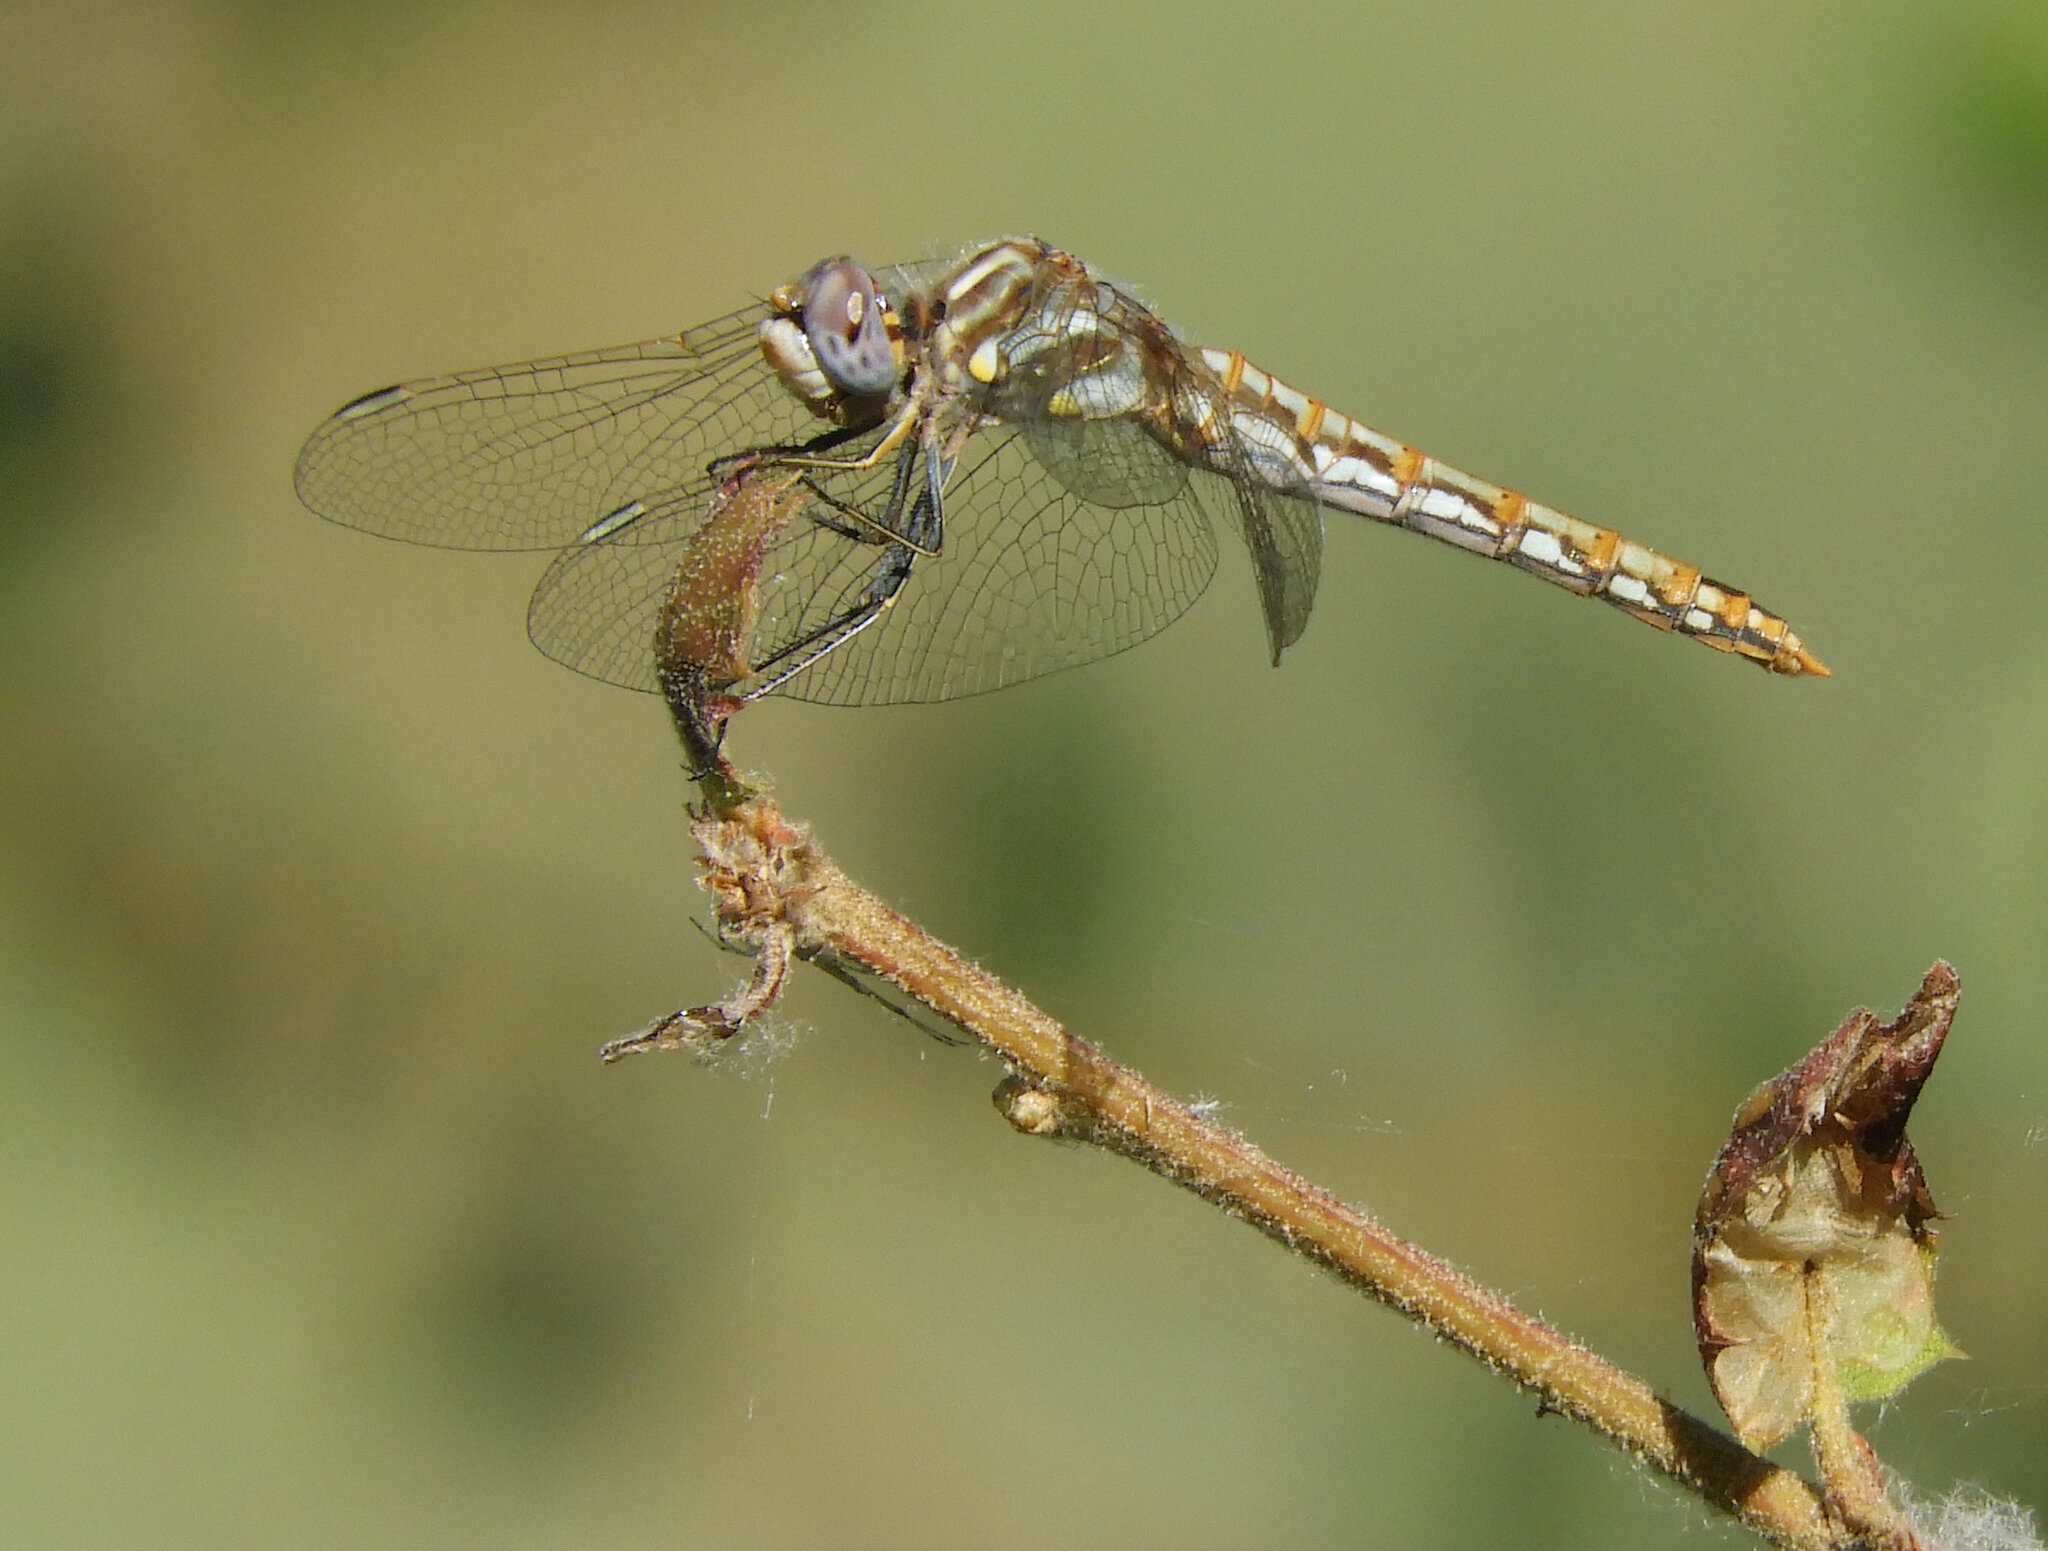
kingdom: Animalia
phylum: Arthropoda
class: Insecta
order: Odonata
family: Libellulidae
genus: Sympetrum
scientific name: Sympetrum corruptum
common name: Variegated meadowhawk
